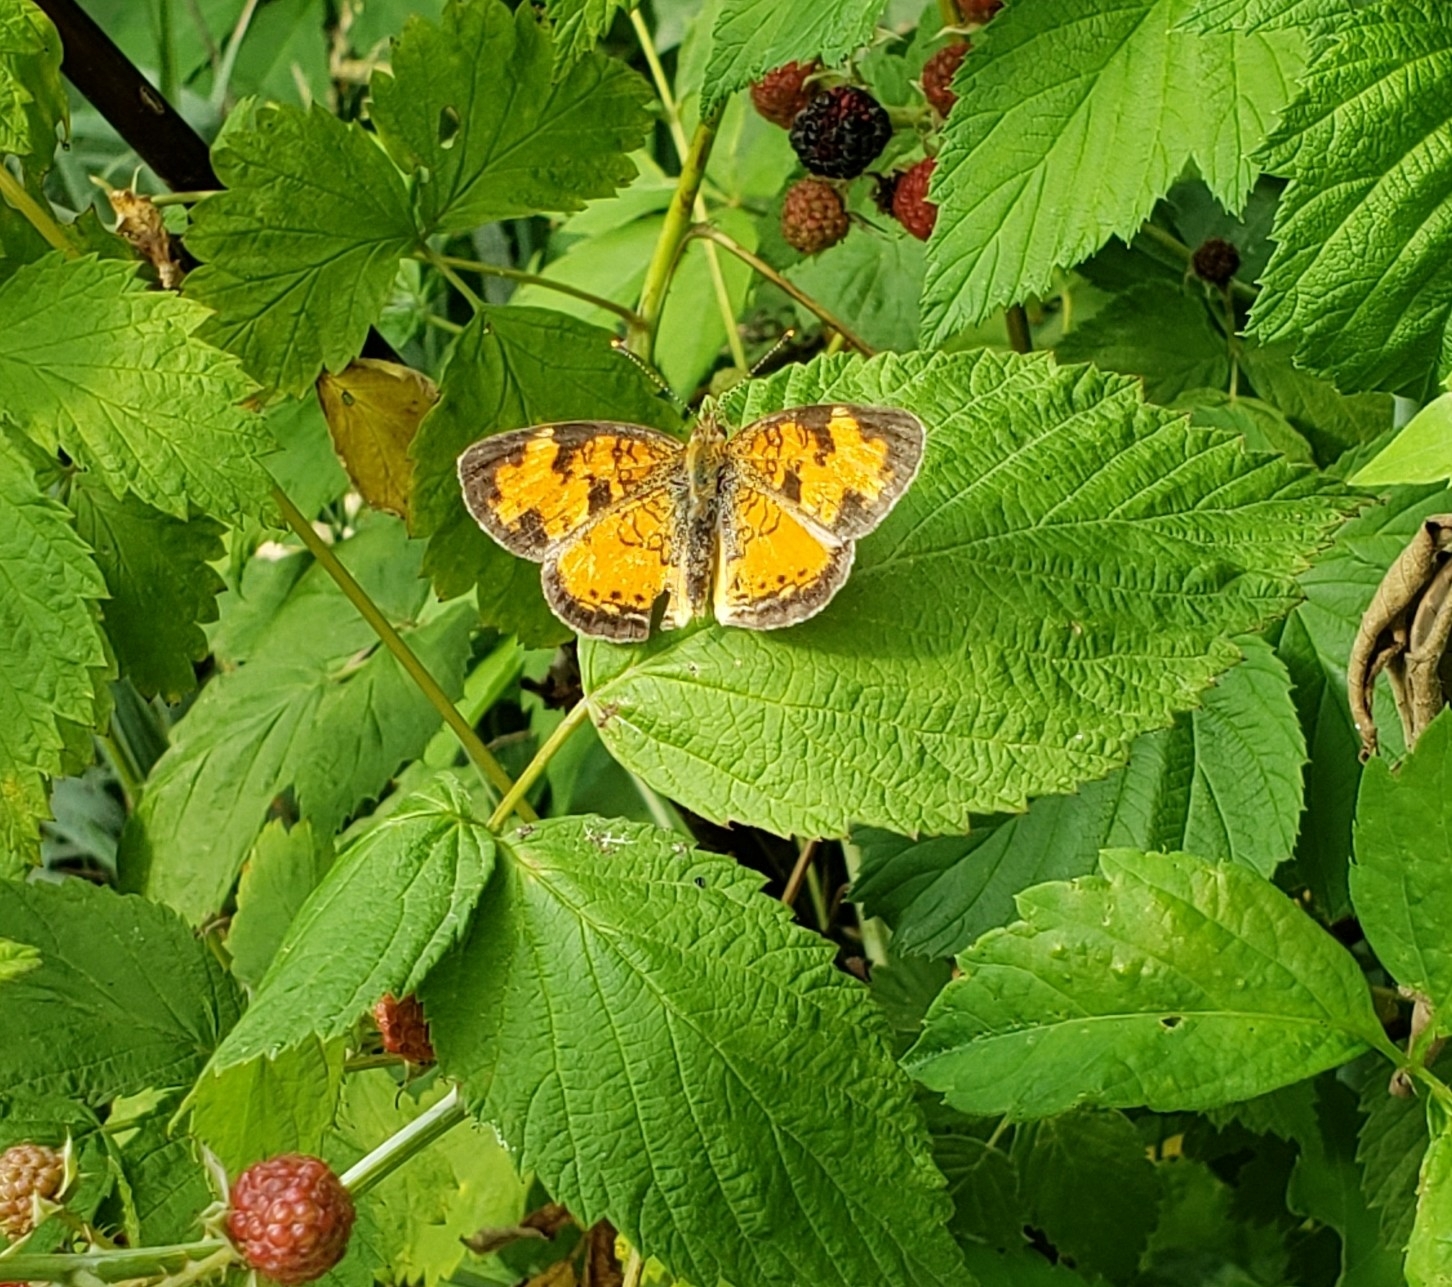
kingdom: Animalia
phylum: Arthropoda
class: Insecta
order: Lepidoptera
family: Nymphalidae
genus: Phyciodes
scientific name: Phyciodes tharos
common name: Pearl crescent
